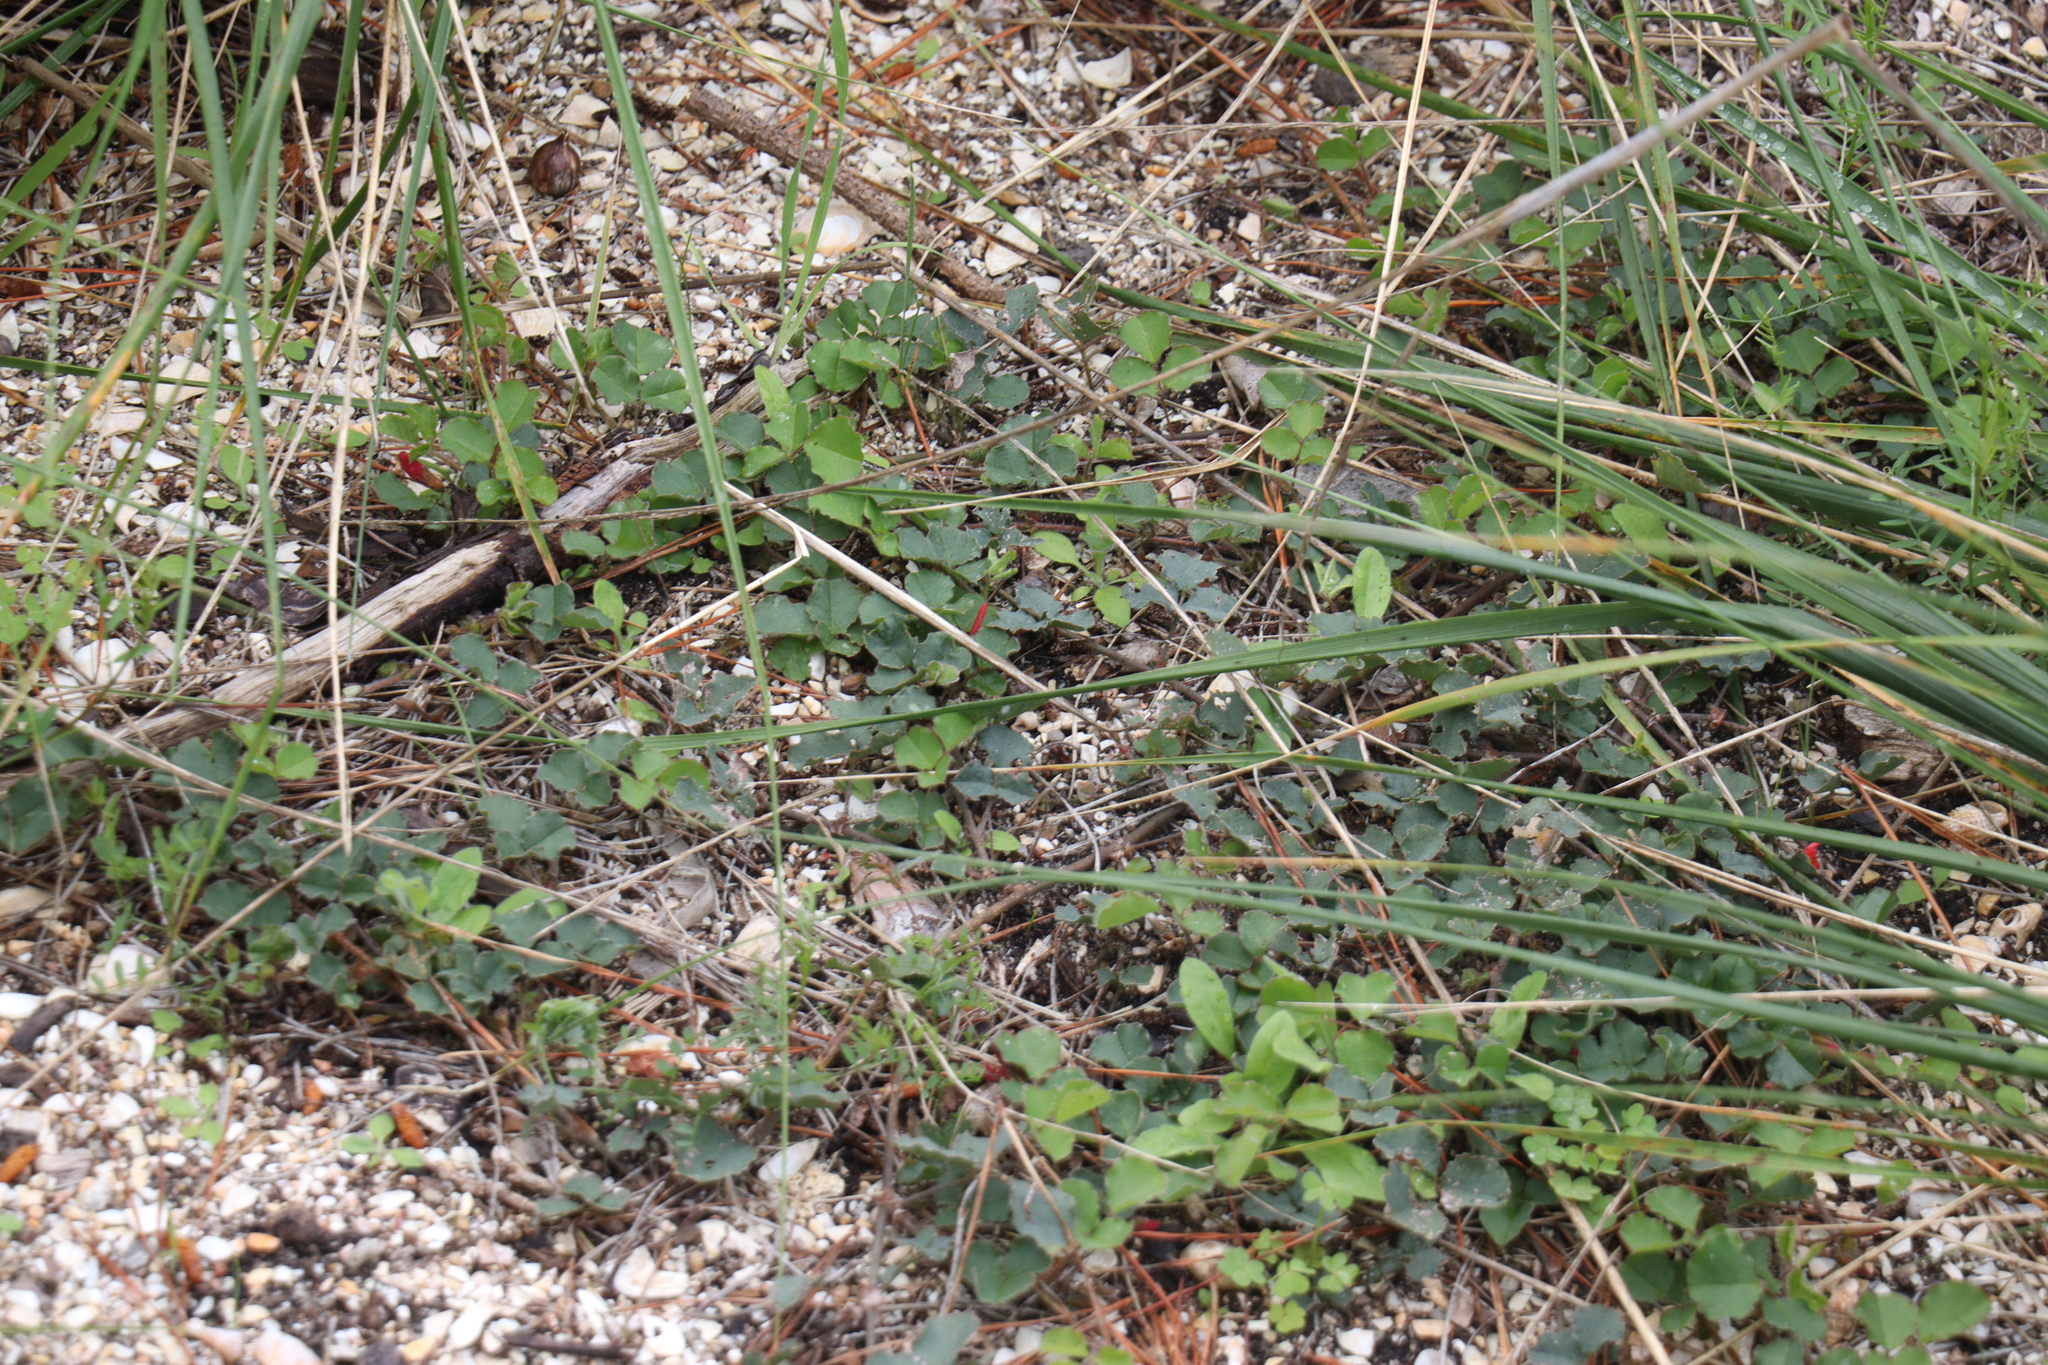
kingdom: Plantae
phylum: Tracheophyta
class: Magnoliopsida
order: Fabales
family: Fabaceae
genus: Kennedia
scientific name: Kennedia prostrata
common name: Running-postman
